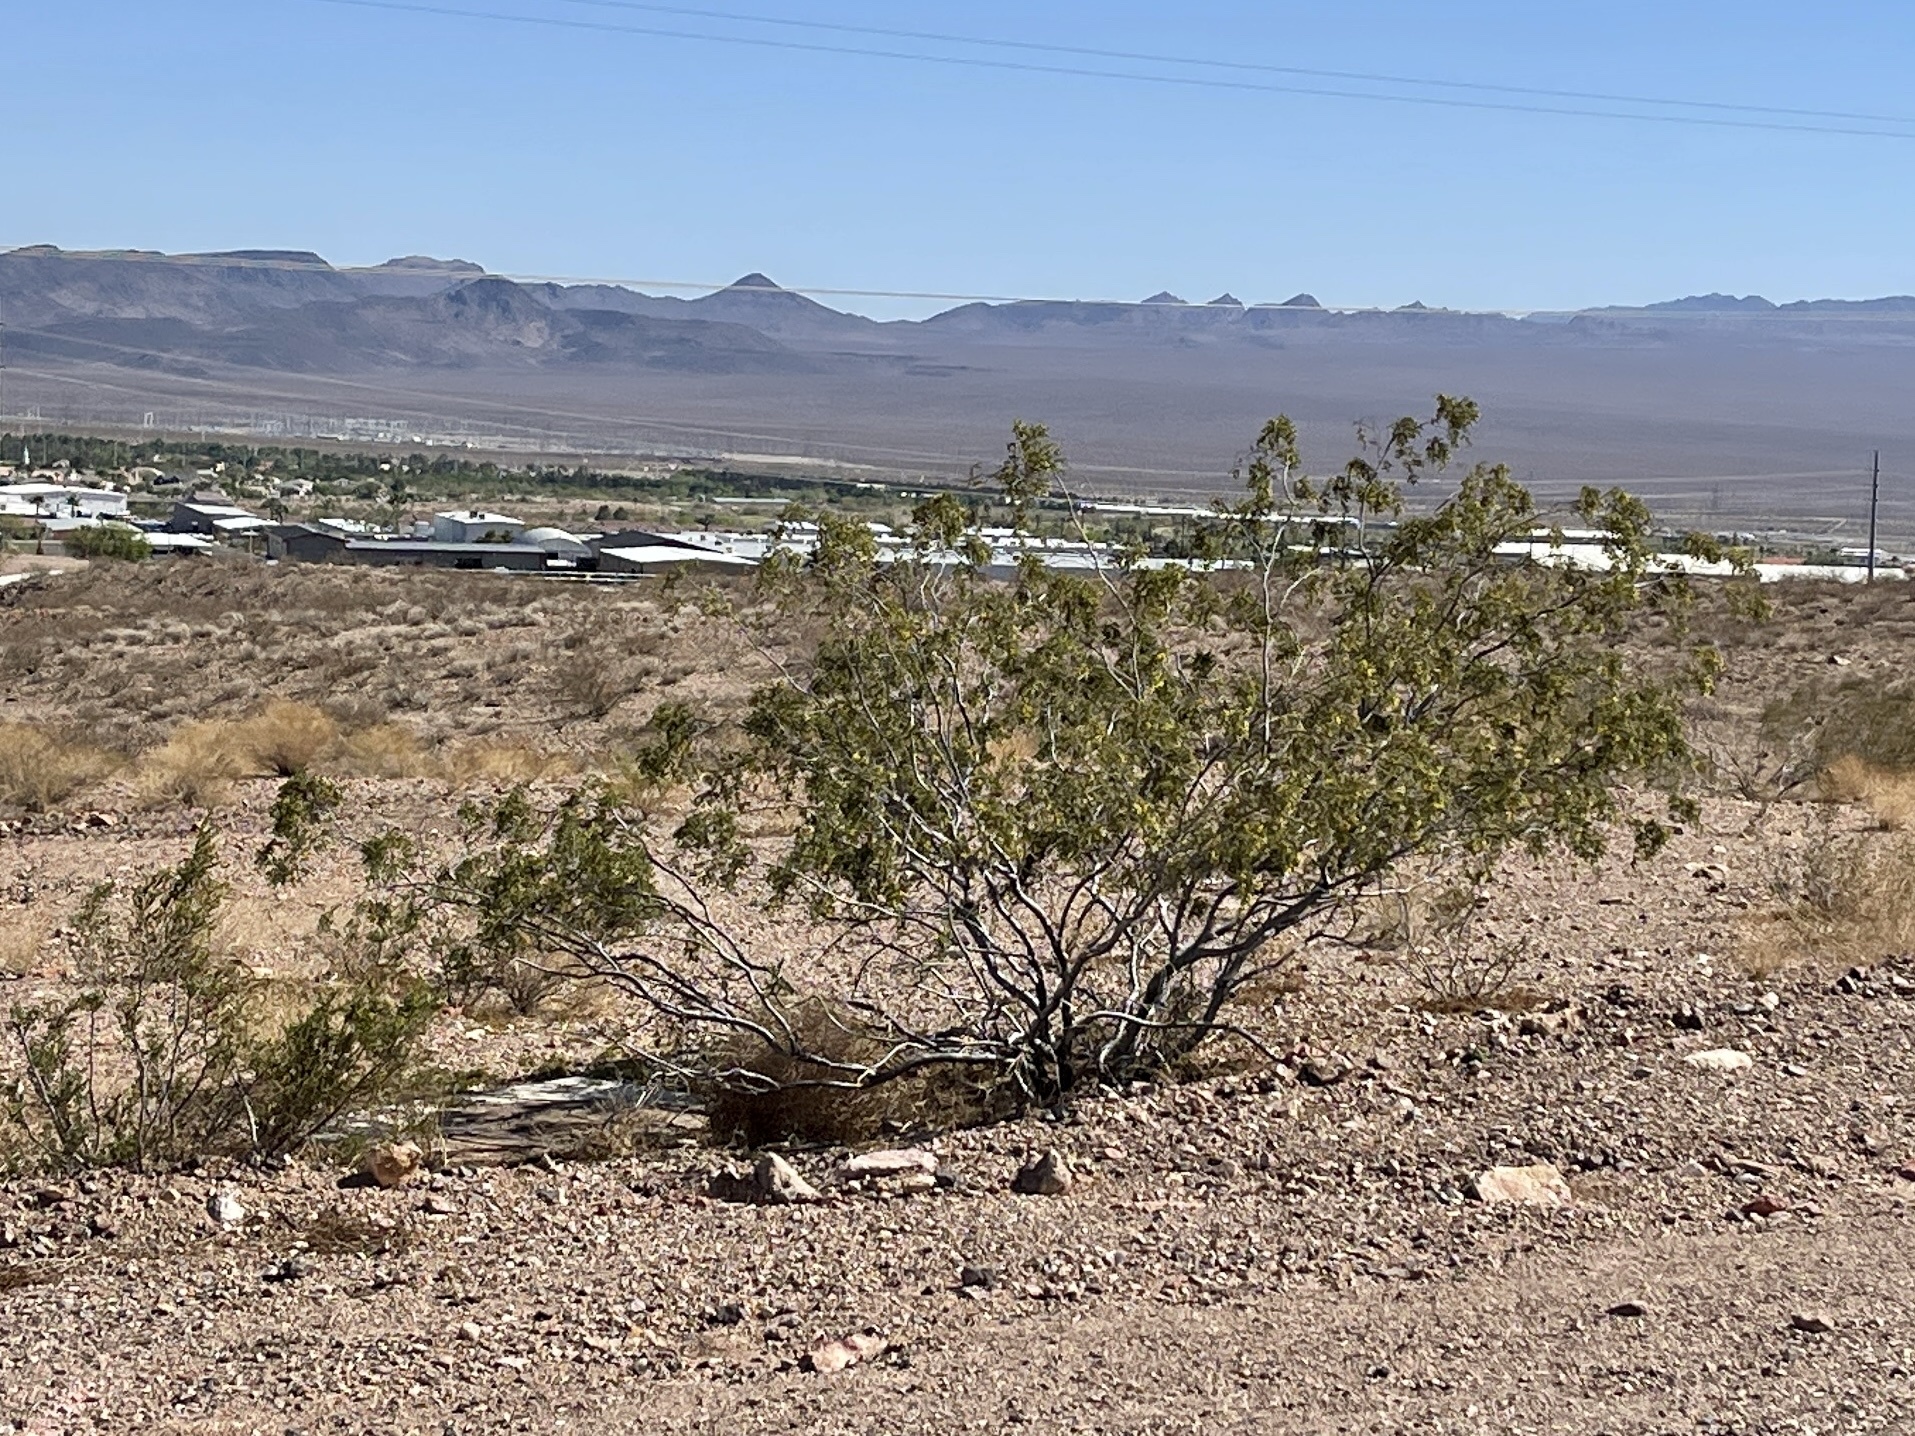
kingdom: Plantae
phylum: Tracheophyta
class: Magnoliopsida
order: Zygophyllales
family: Zygophyllaceae
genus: Larrea
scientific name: Larrea tridentata
